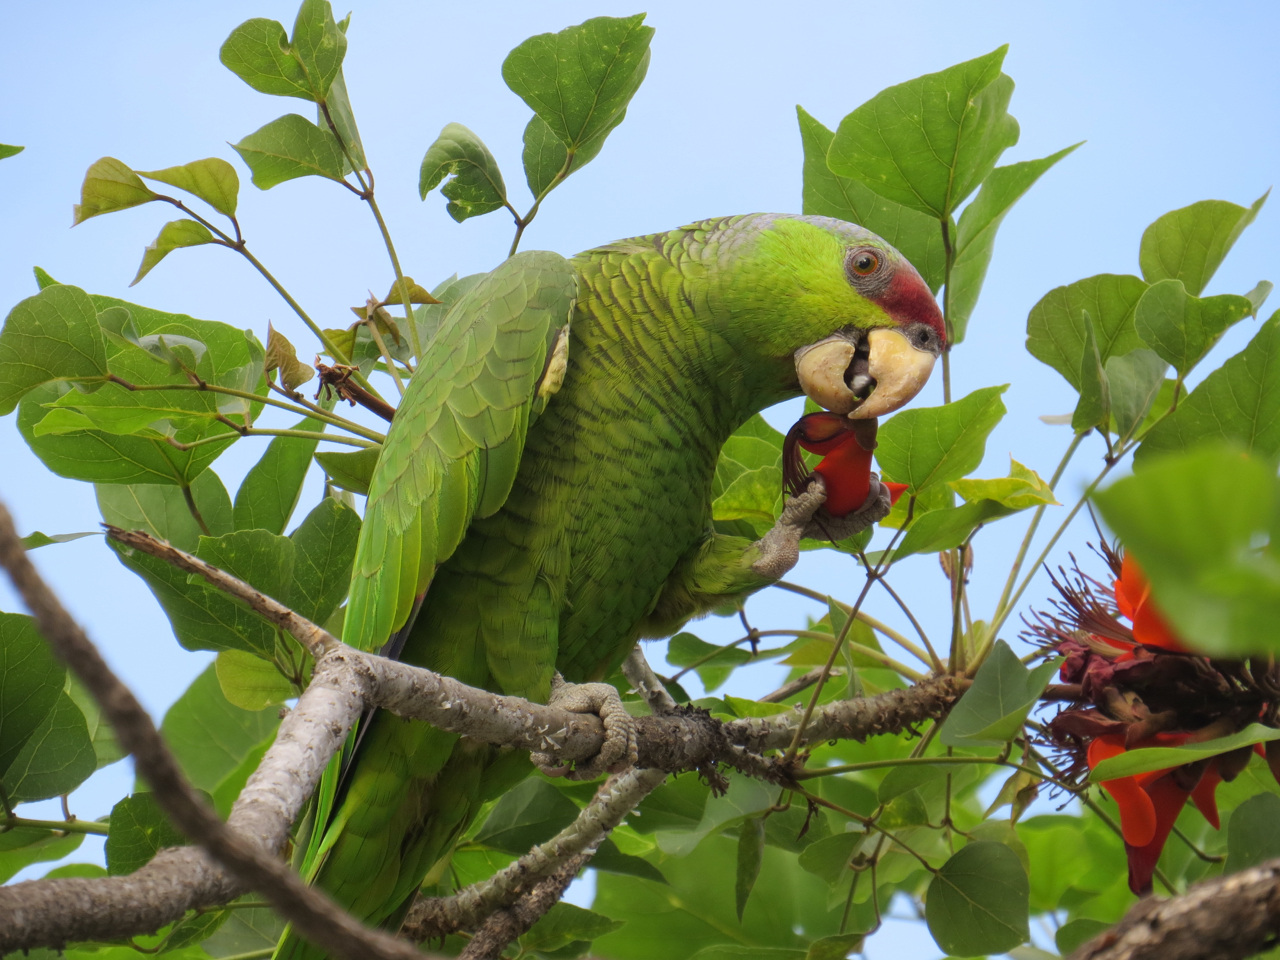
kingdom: Animalia
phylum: Chordata
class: Aves
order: Psittaciformes
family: Psittacidae
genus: Amazona
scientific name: Amazona finschi
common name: Lilac-crowned amazon
